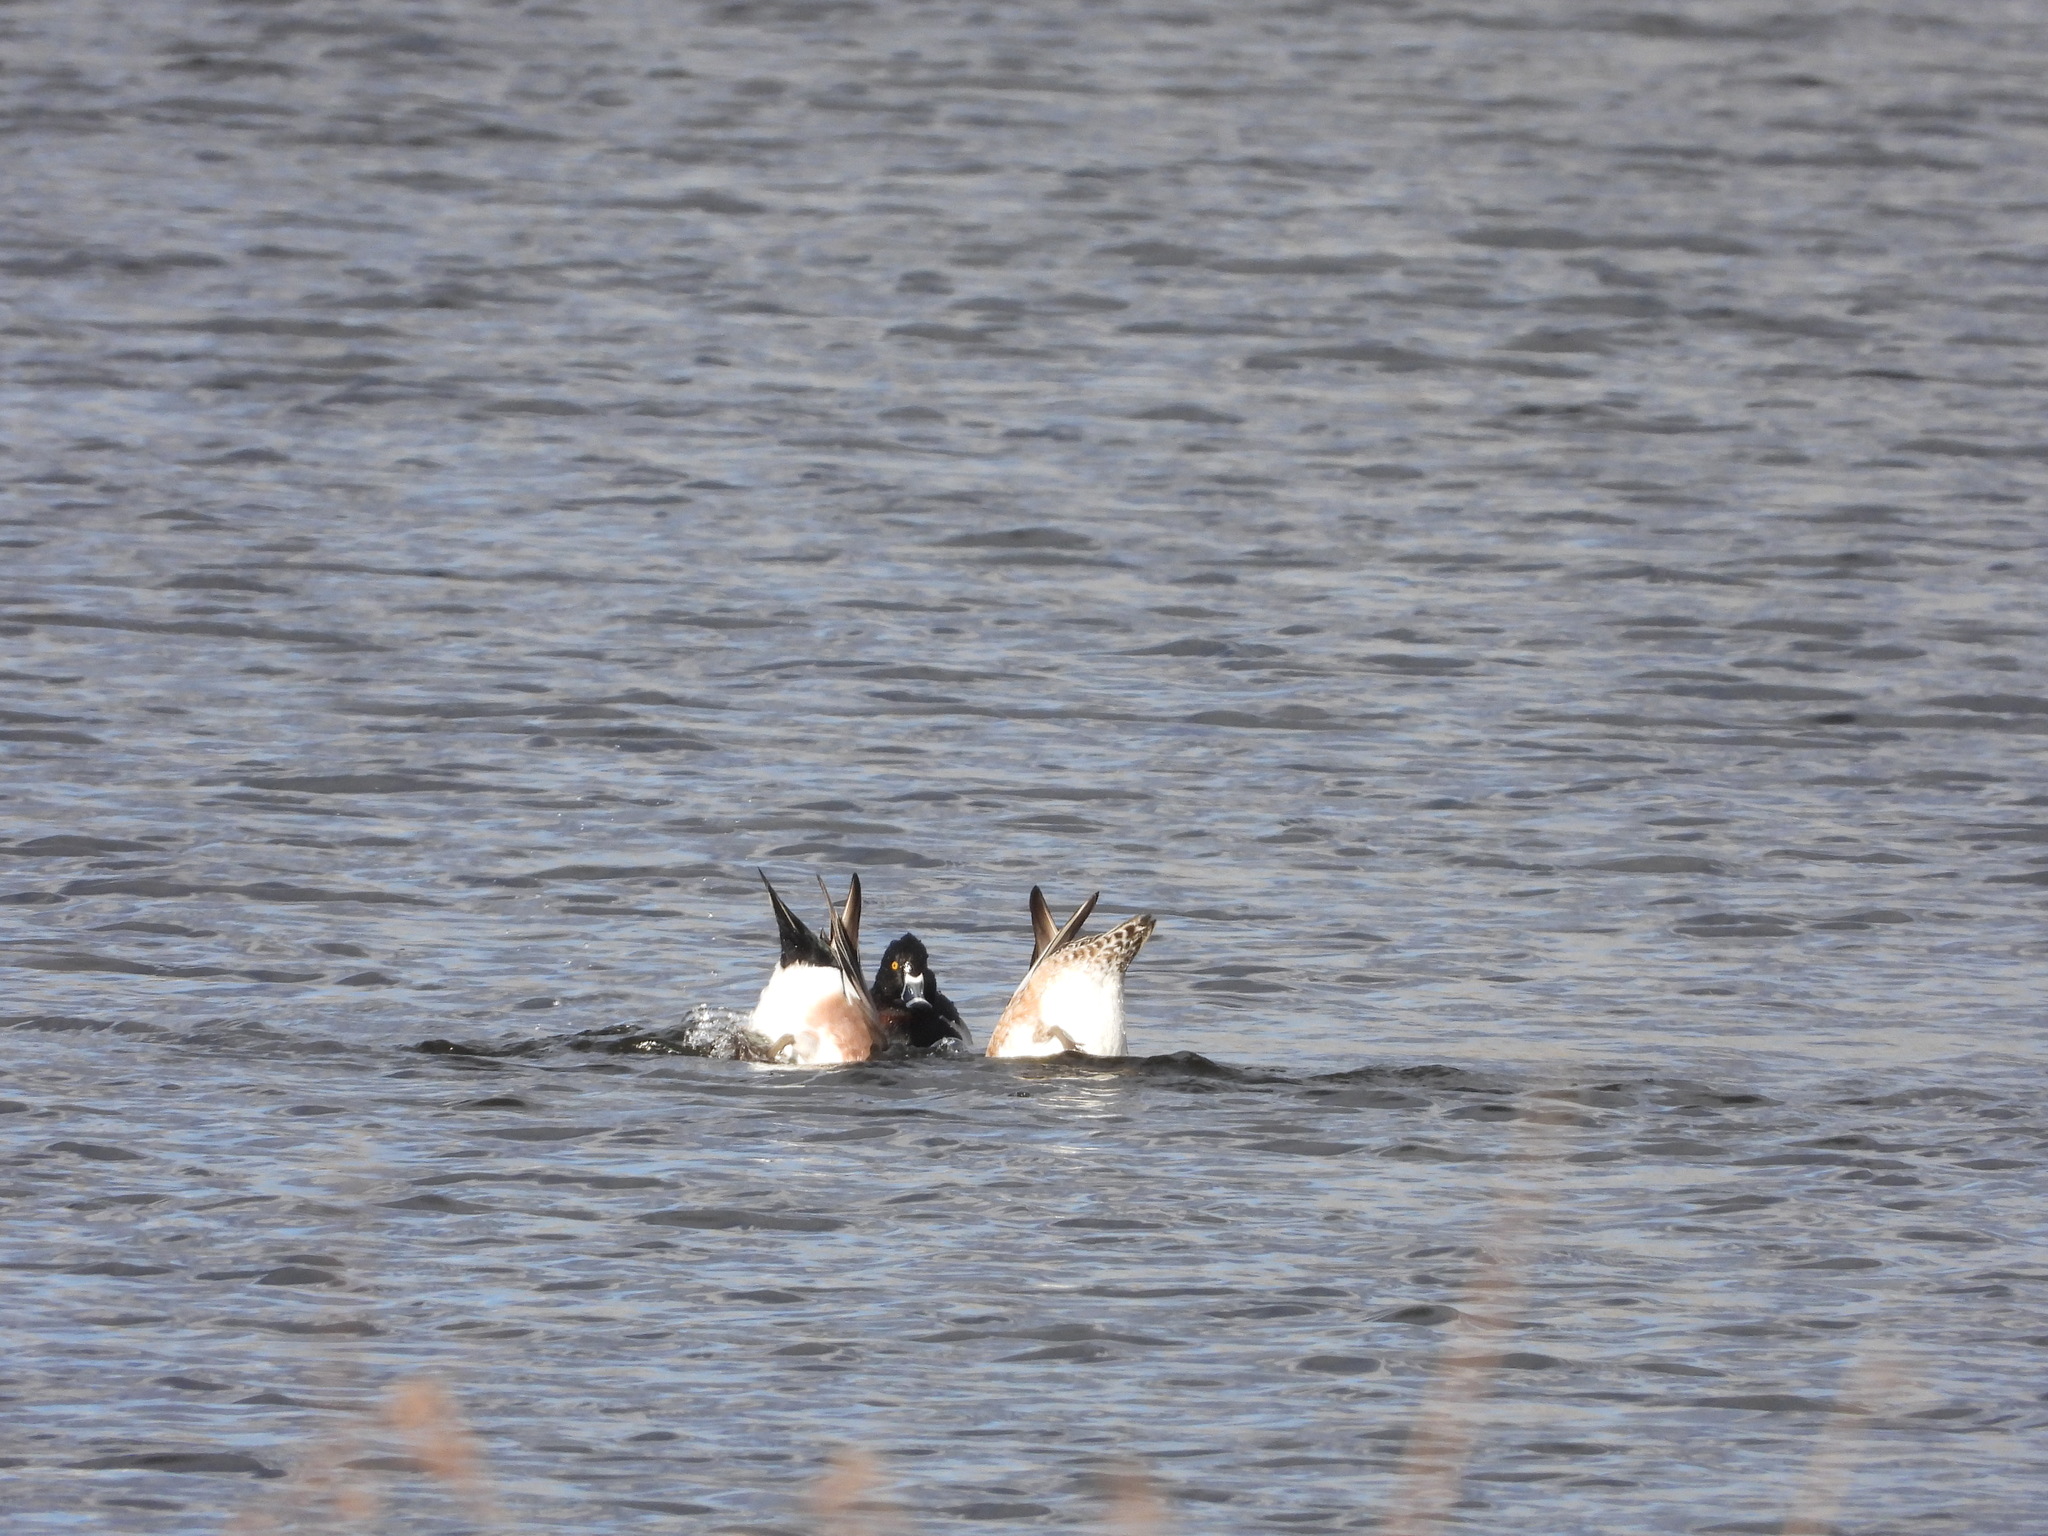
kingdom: Animalia
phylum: Chordata
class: Aves
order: Anseriformes
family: Anatidae
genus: Aythya
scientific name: Aythya collaris
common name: Ring-necked duck
